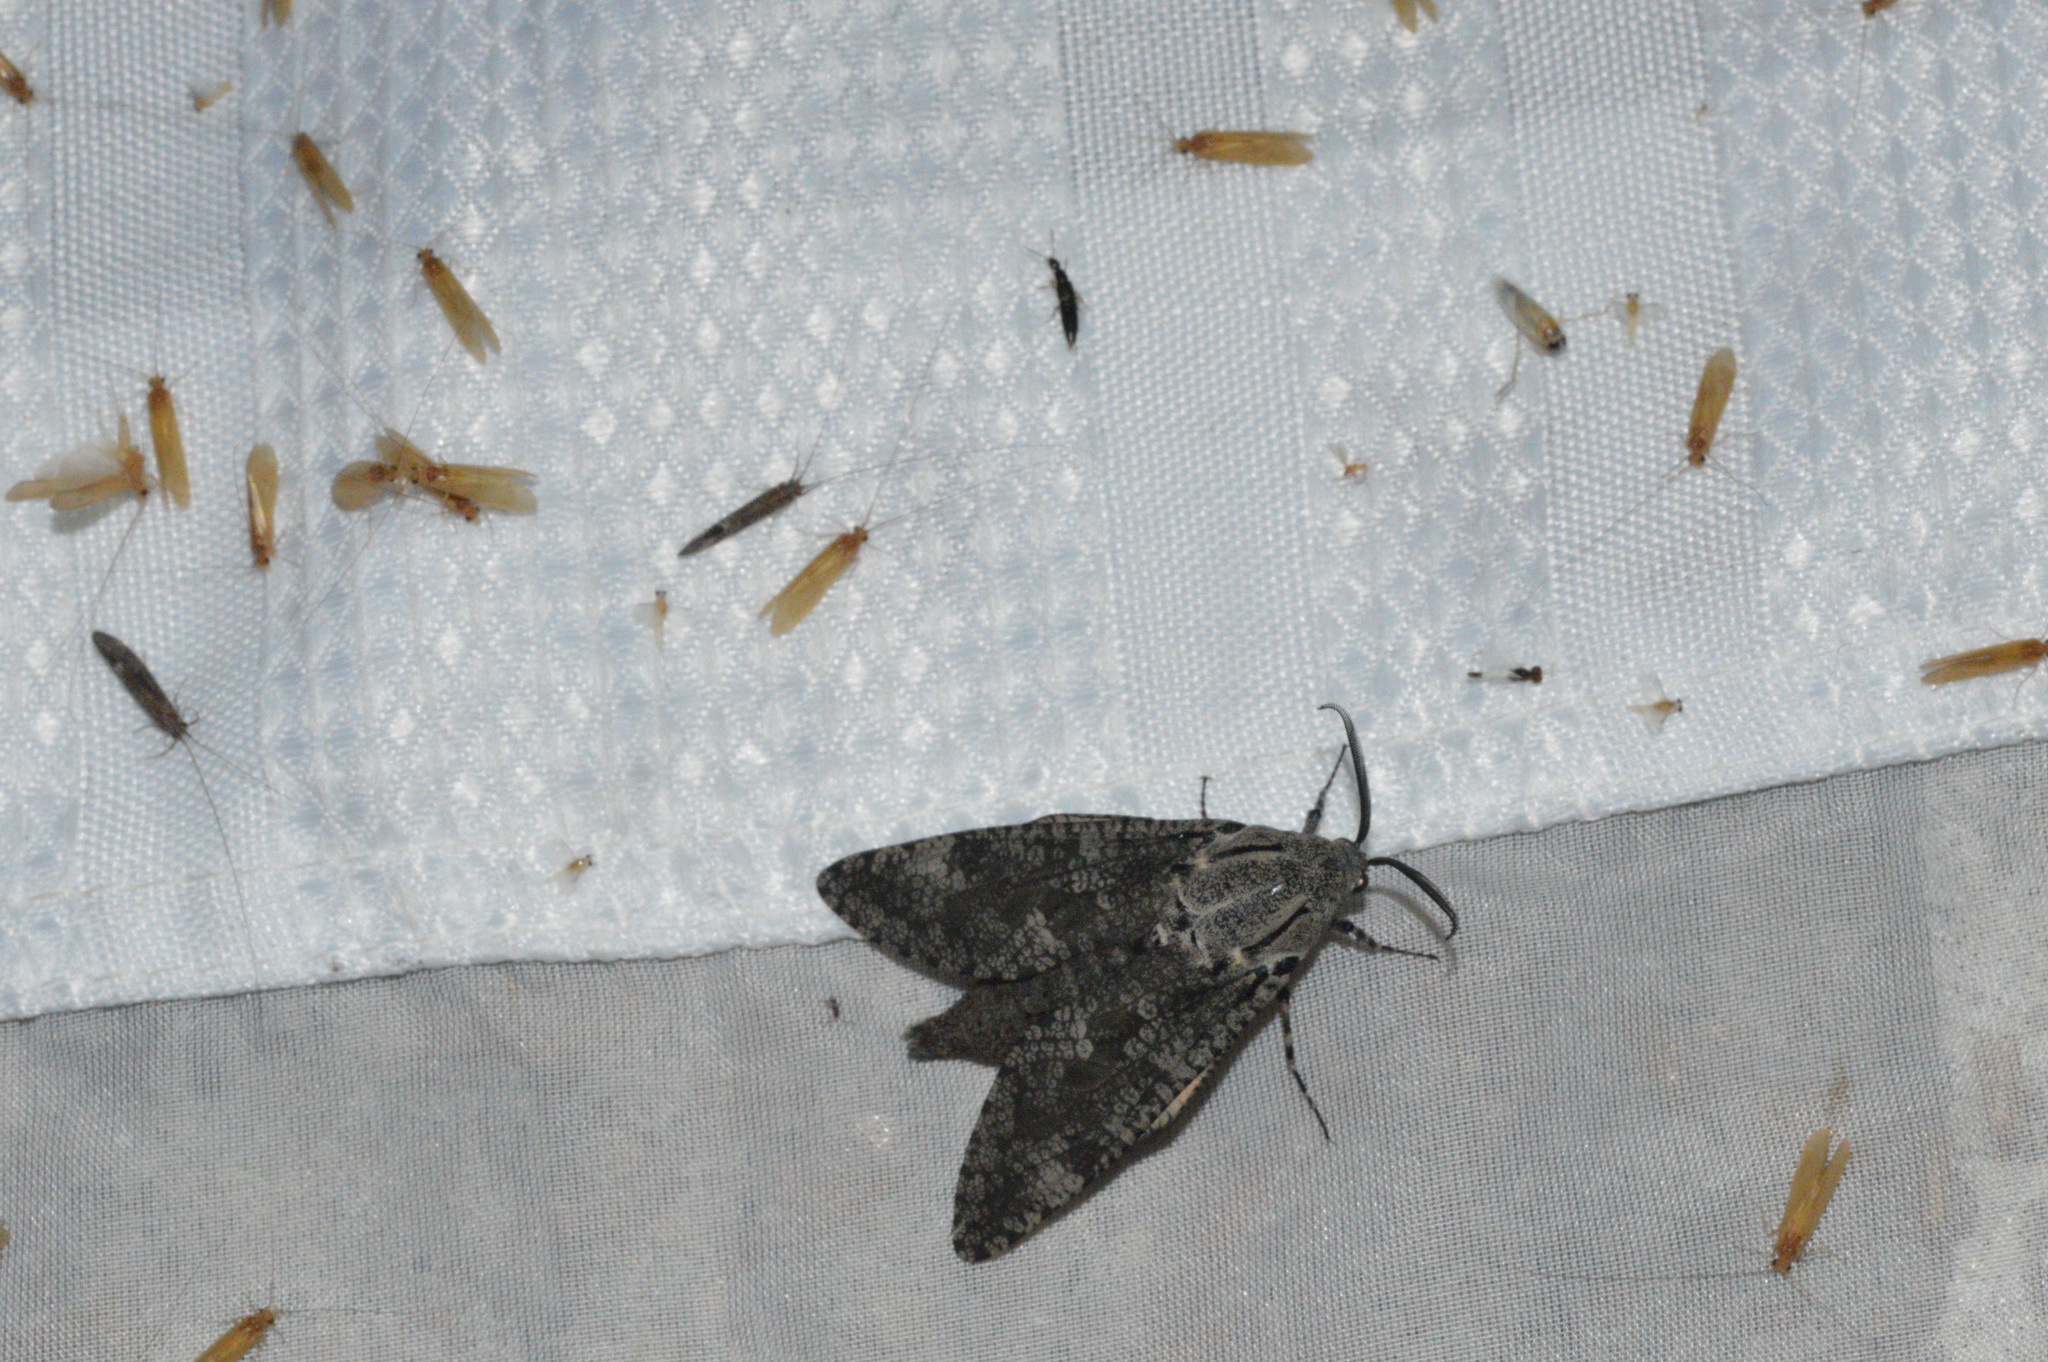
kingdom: Animalia
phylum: Arthropoda
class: Insecta
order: Lepidoptera
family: Cossidae
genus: Prionoxystus
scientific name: Prionoxystus robiniae
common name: Carpenterworm
